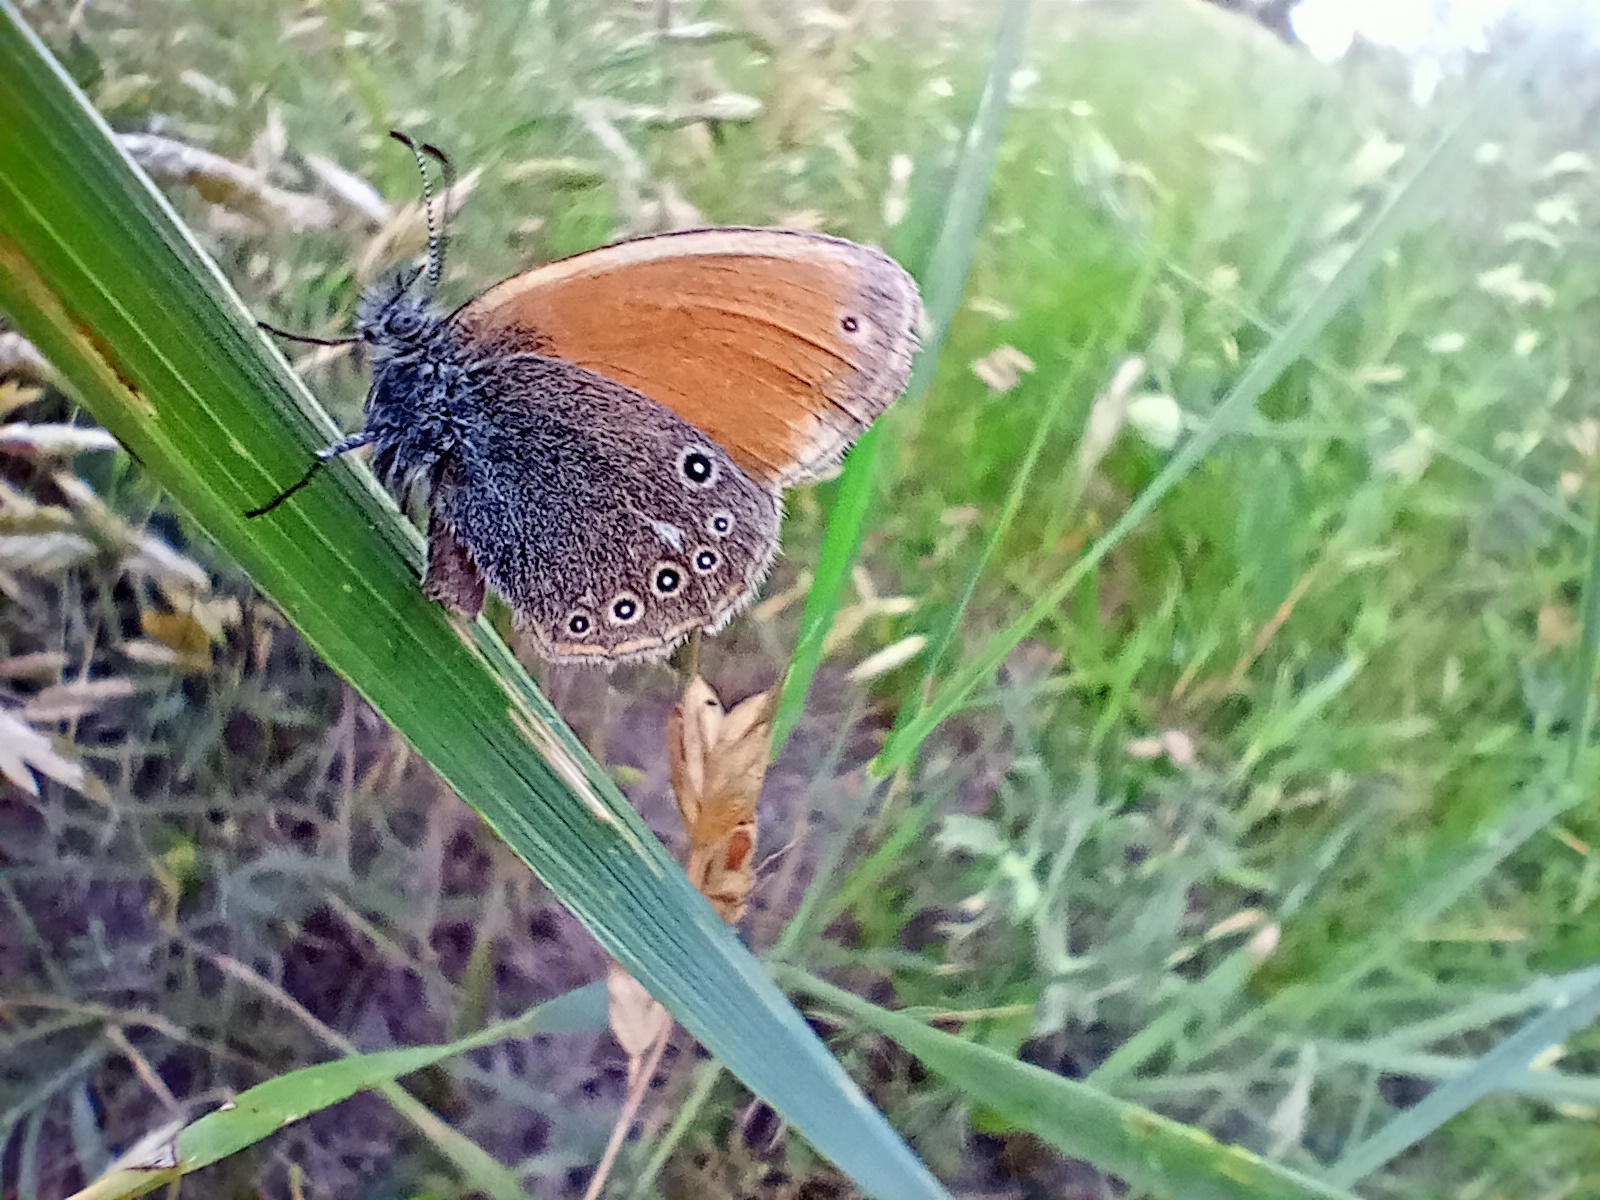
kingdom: Animalia
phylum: Arthropoda
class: Insecta
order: Lepidoptera
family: Nymphalidae
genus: Coenonympha
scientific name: Coenonympha iphis
